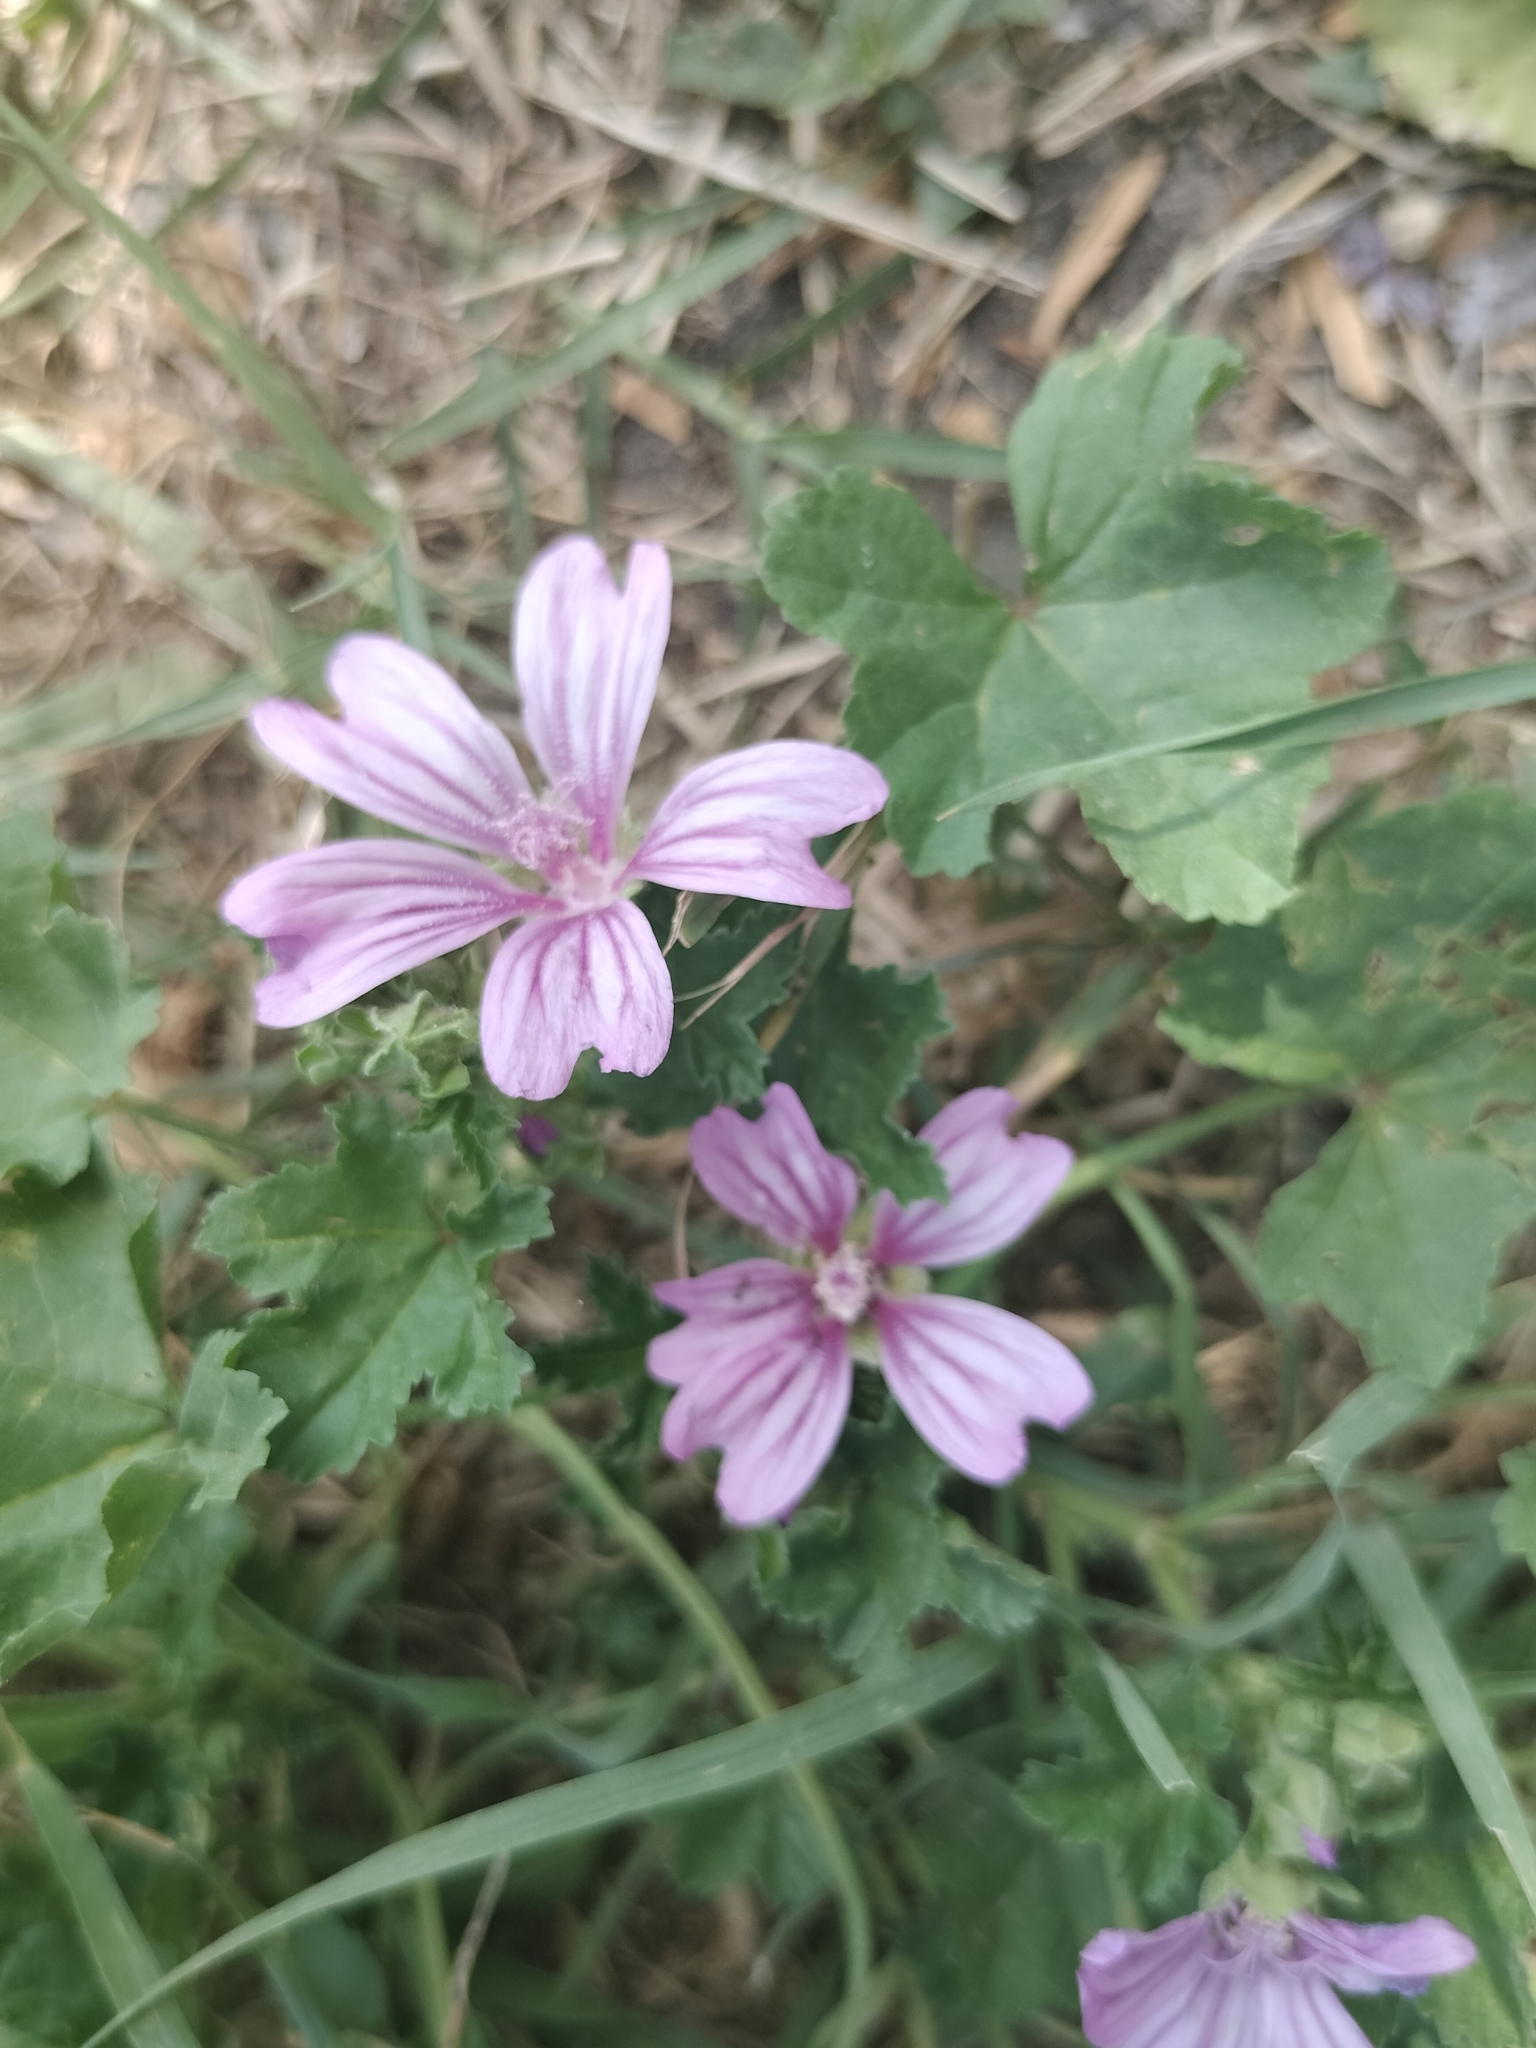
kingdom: Plantae
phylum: Tracheophyta
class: Magnoliopsida
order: Malvales
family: Malvaceae
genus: Malva
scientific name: Malva sylvestris
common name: Common mallow
